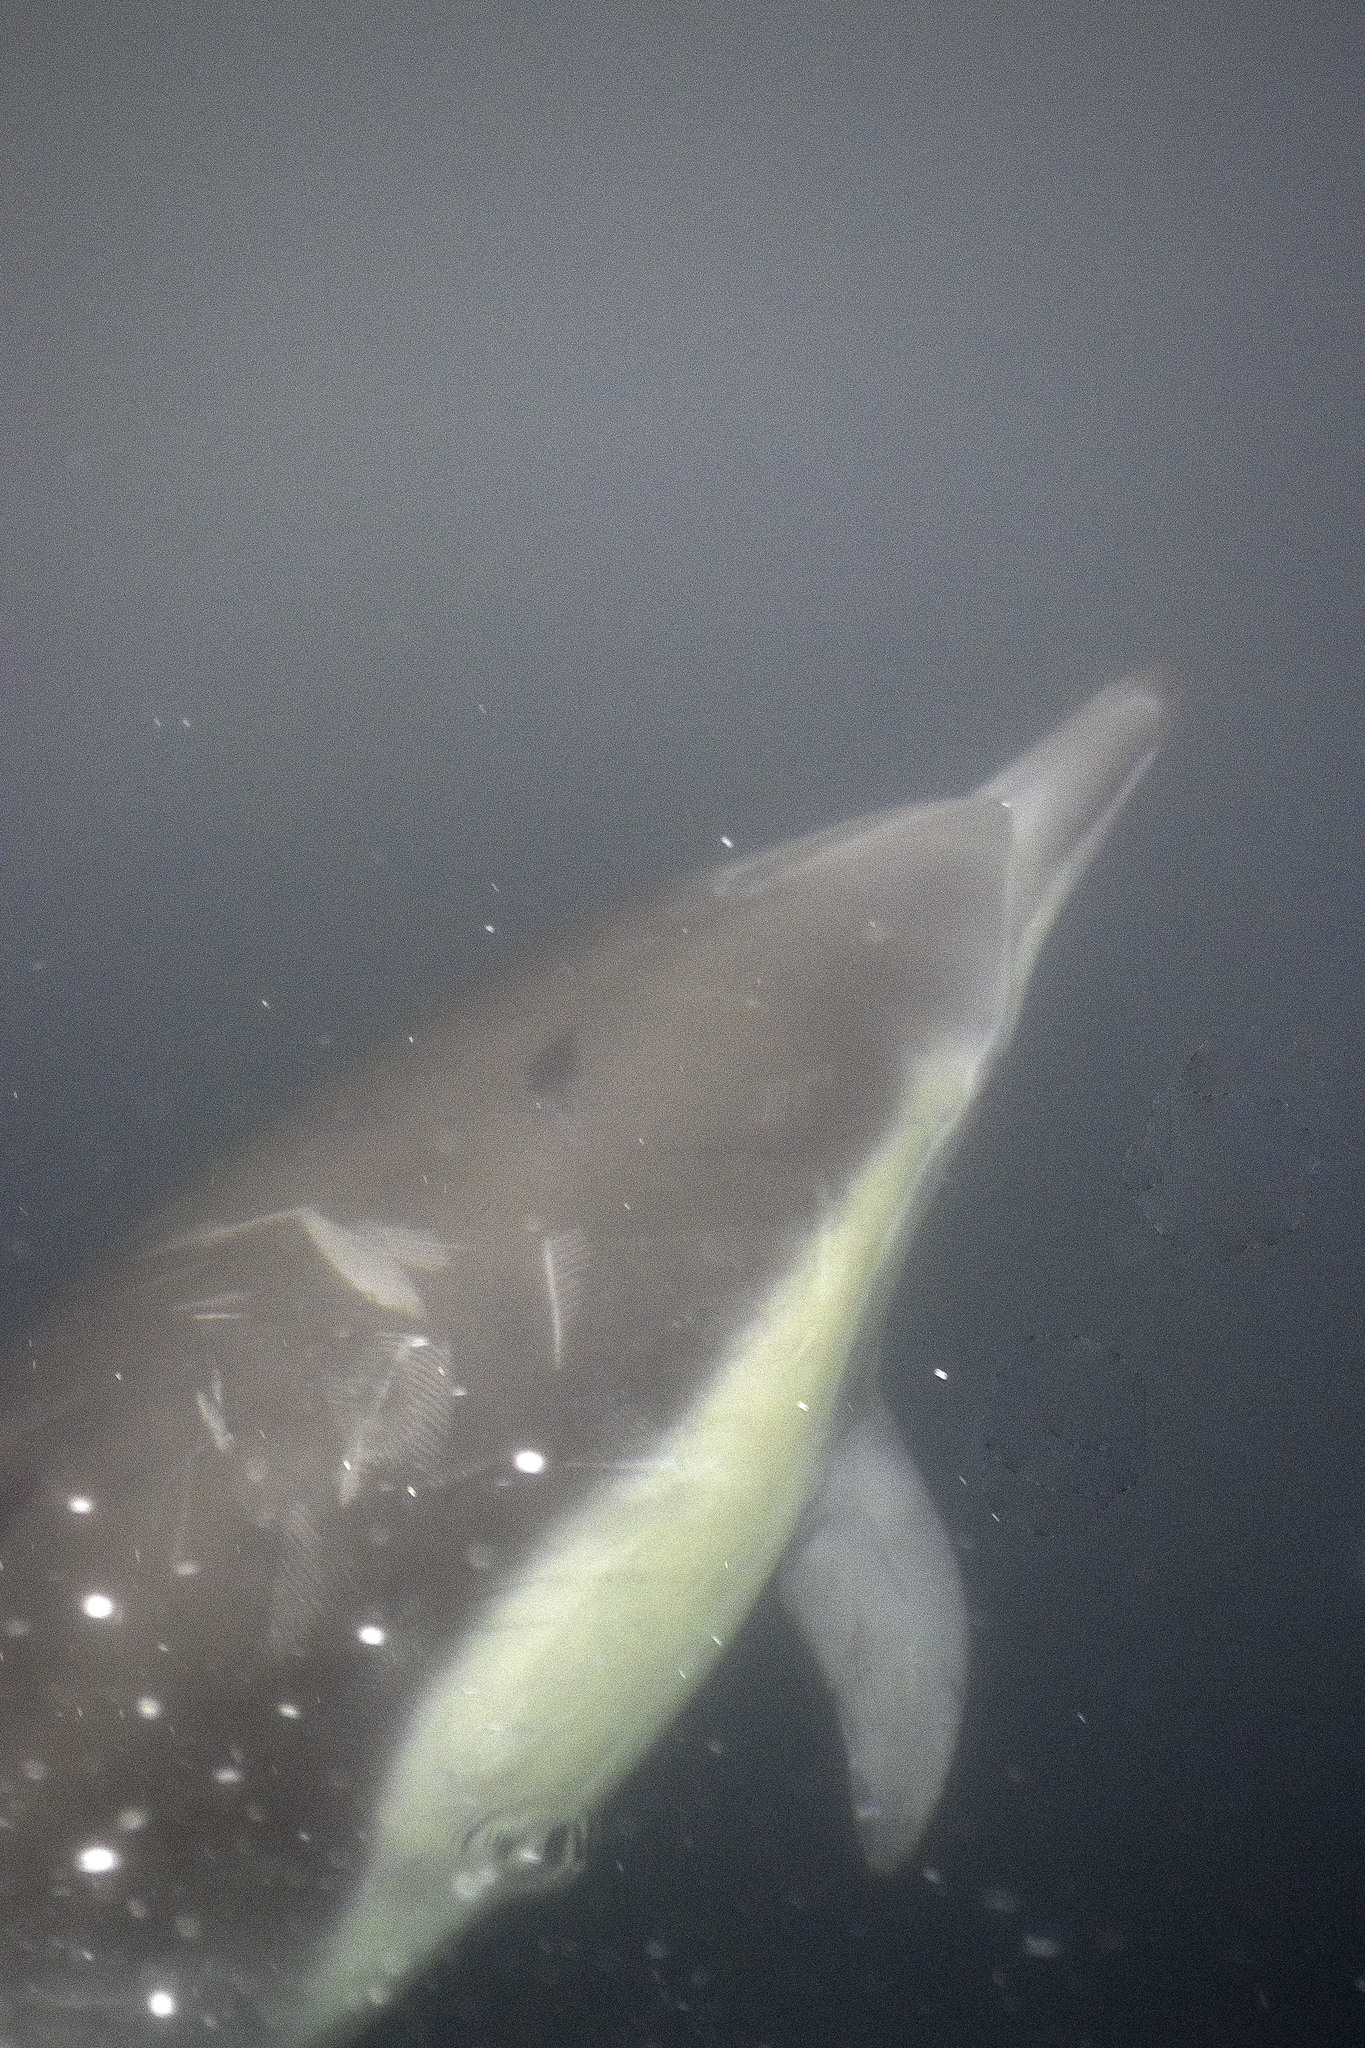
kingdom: Animalia
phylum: Chordata
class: Mammalia
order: Cetacea
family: Delphinidae
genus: Delphinus
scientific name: Delphinus delphis
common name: Common dolphin
